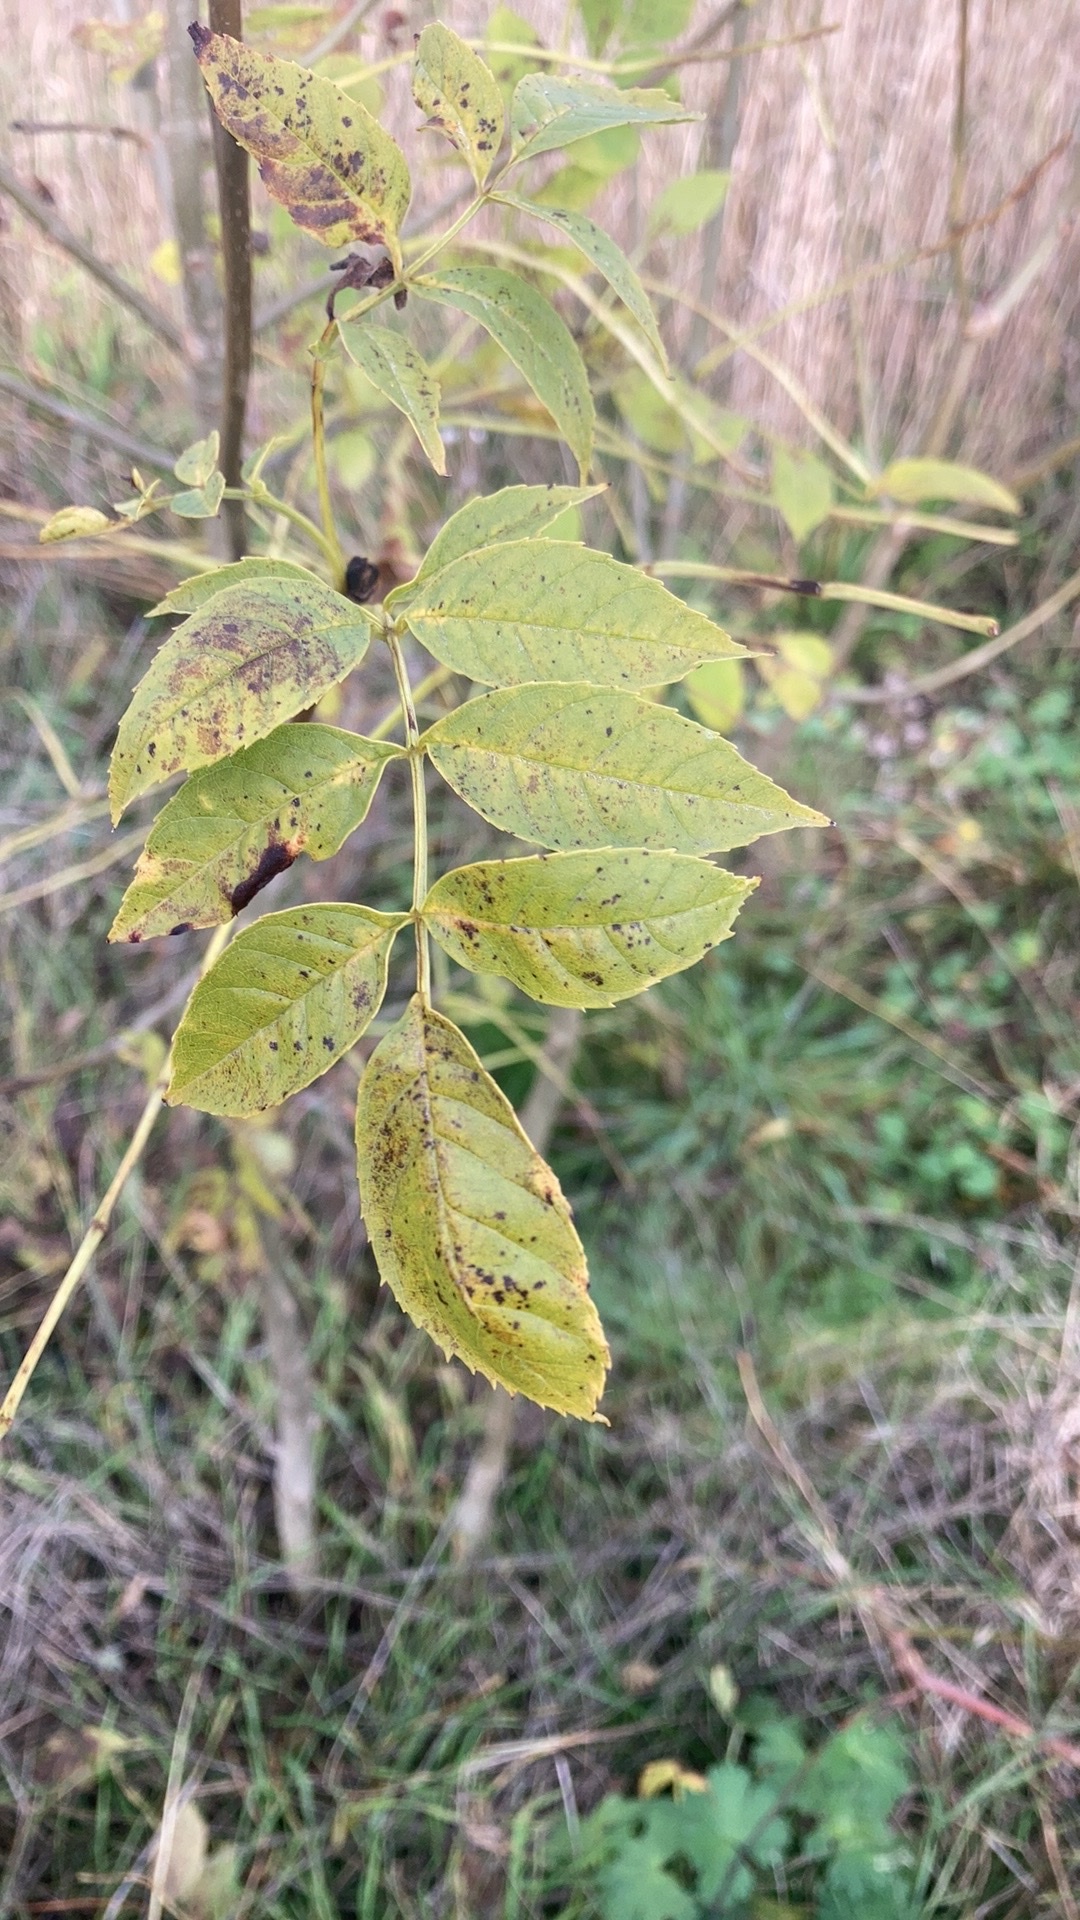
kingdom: Plantae
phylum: Tracheophyta
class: Magnoliopsida
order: Lamiales
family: Oleaceae
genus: Fraxinus
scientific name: Fraxinus excelsior
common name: European ash
